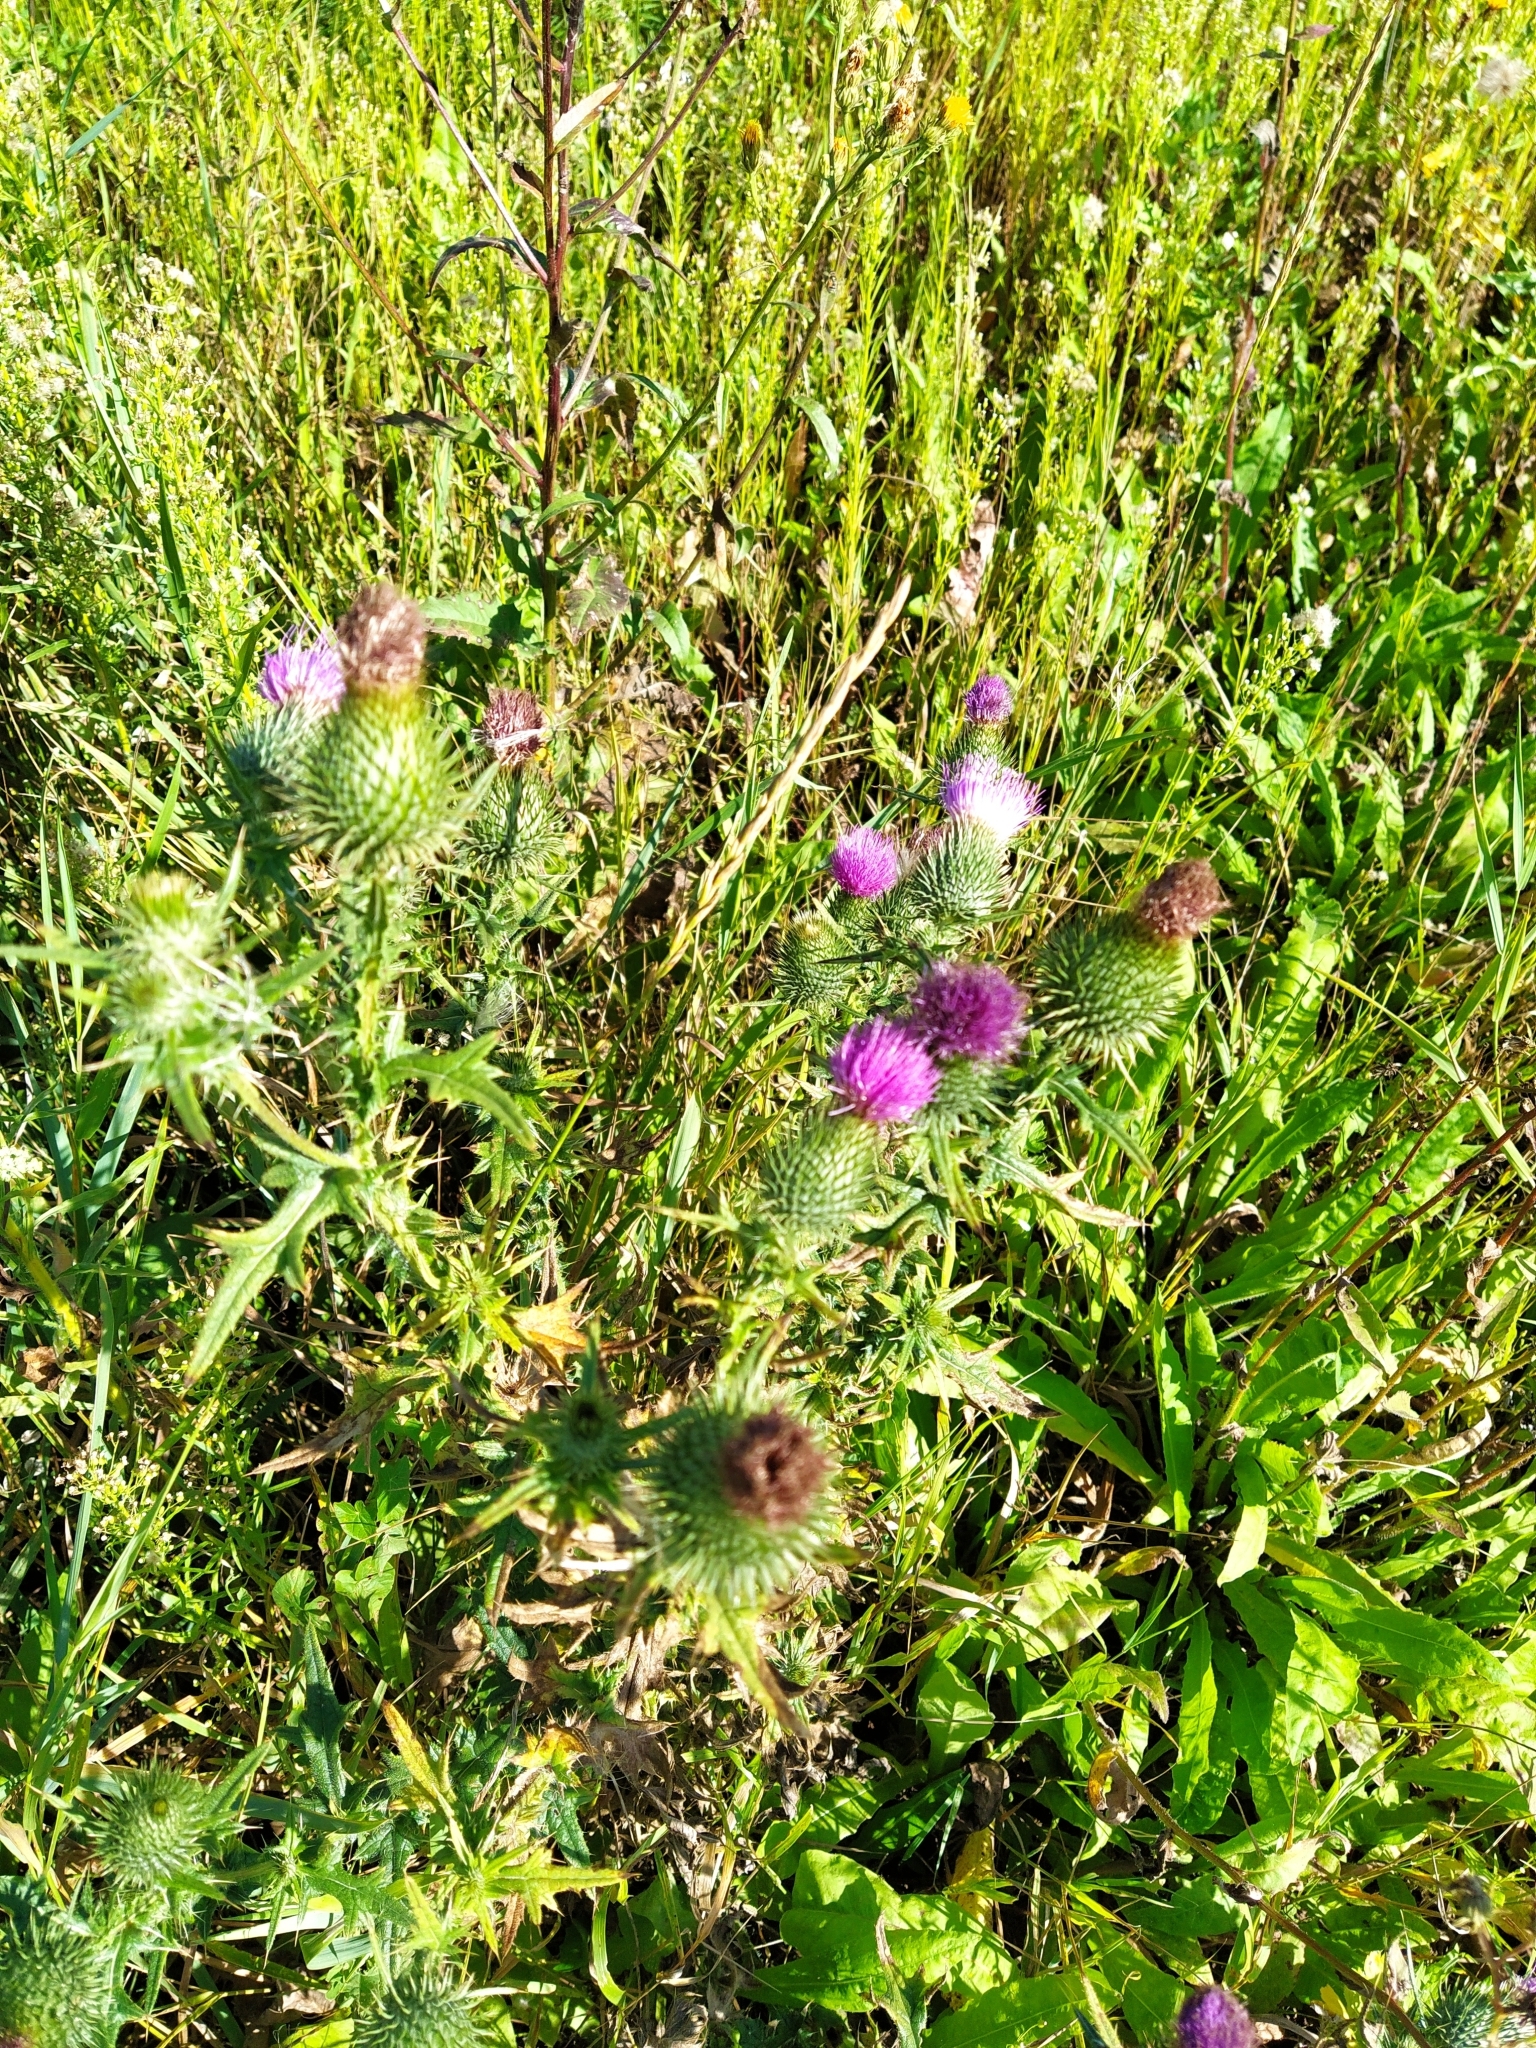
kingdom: Plantae
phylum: Tracheophyta
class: Magnoliopsida
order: Asterales
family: Asteraceae
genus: Cirsium
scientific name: Cirsium vulgare
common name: Bull thistle
